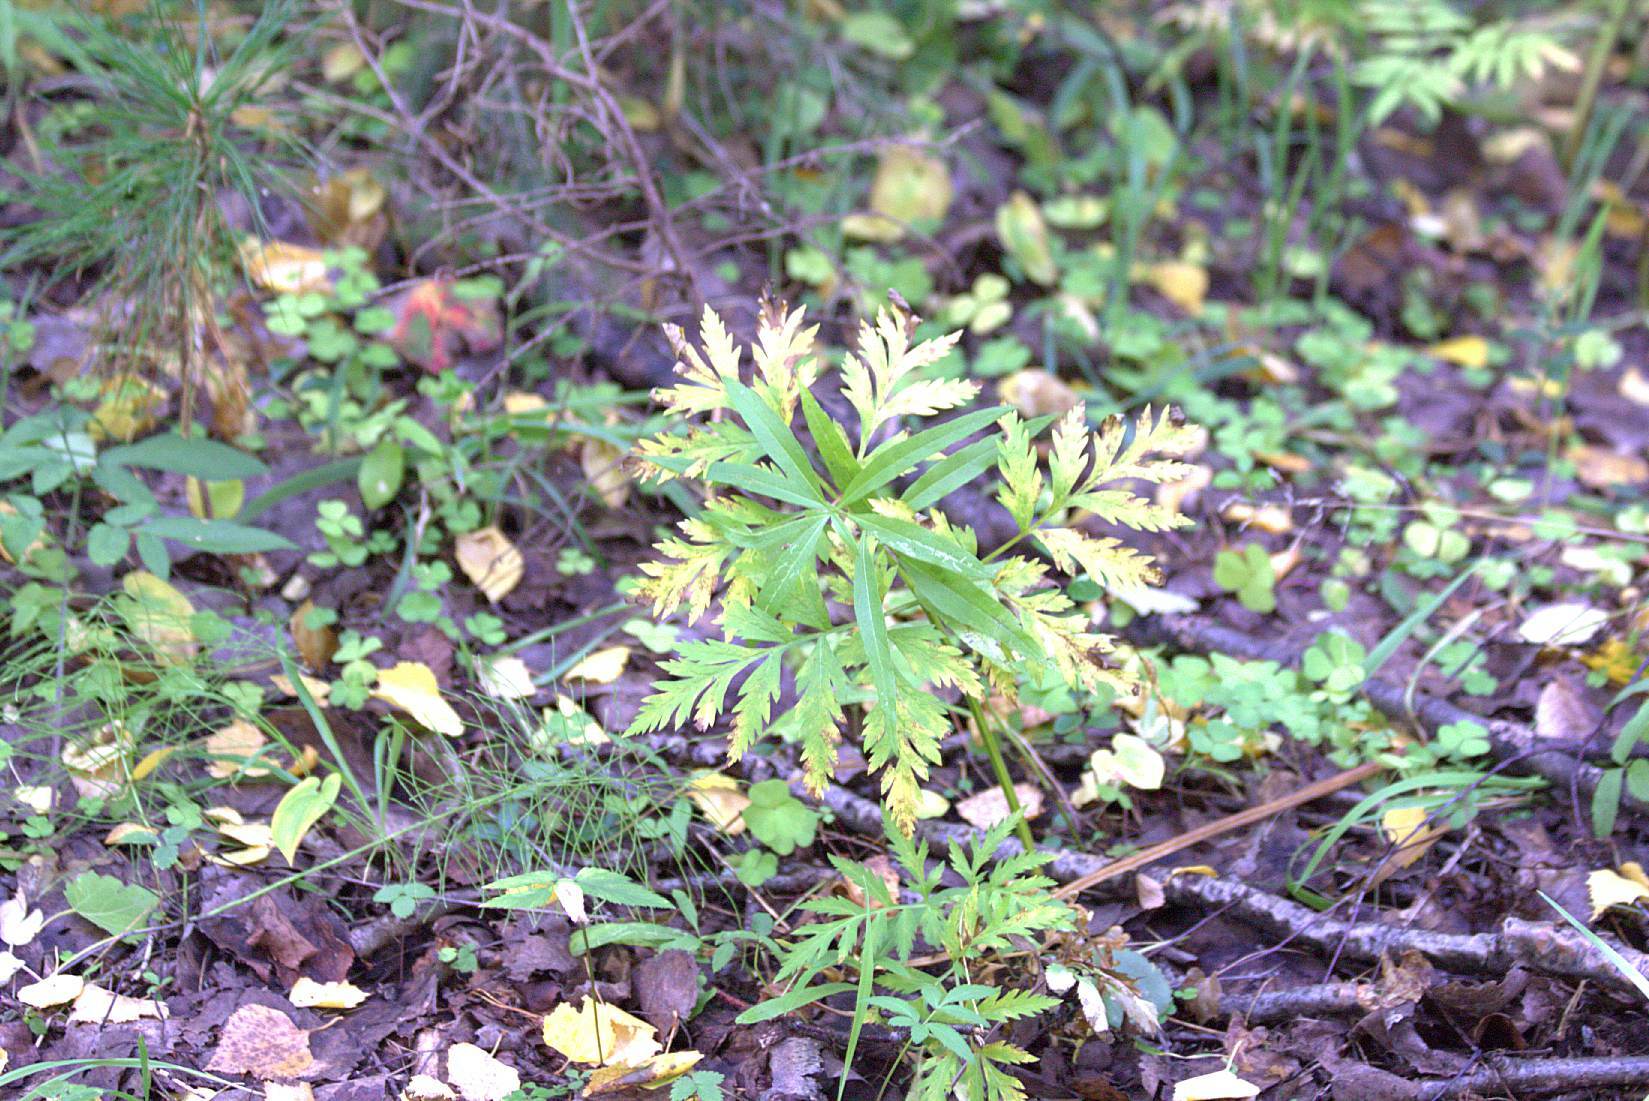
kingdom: Plantae
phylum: Tracheophyta
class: Magnoliopsida
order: Apiales
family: Apiaceae
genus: Pleurospermum
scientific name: Pleurospermum uralense
